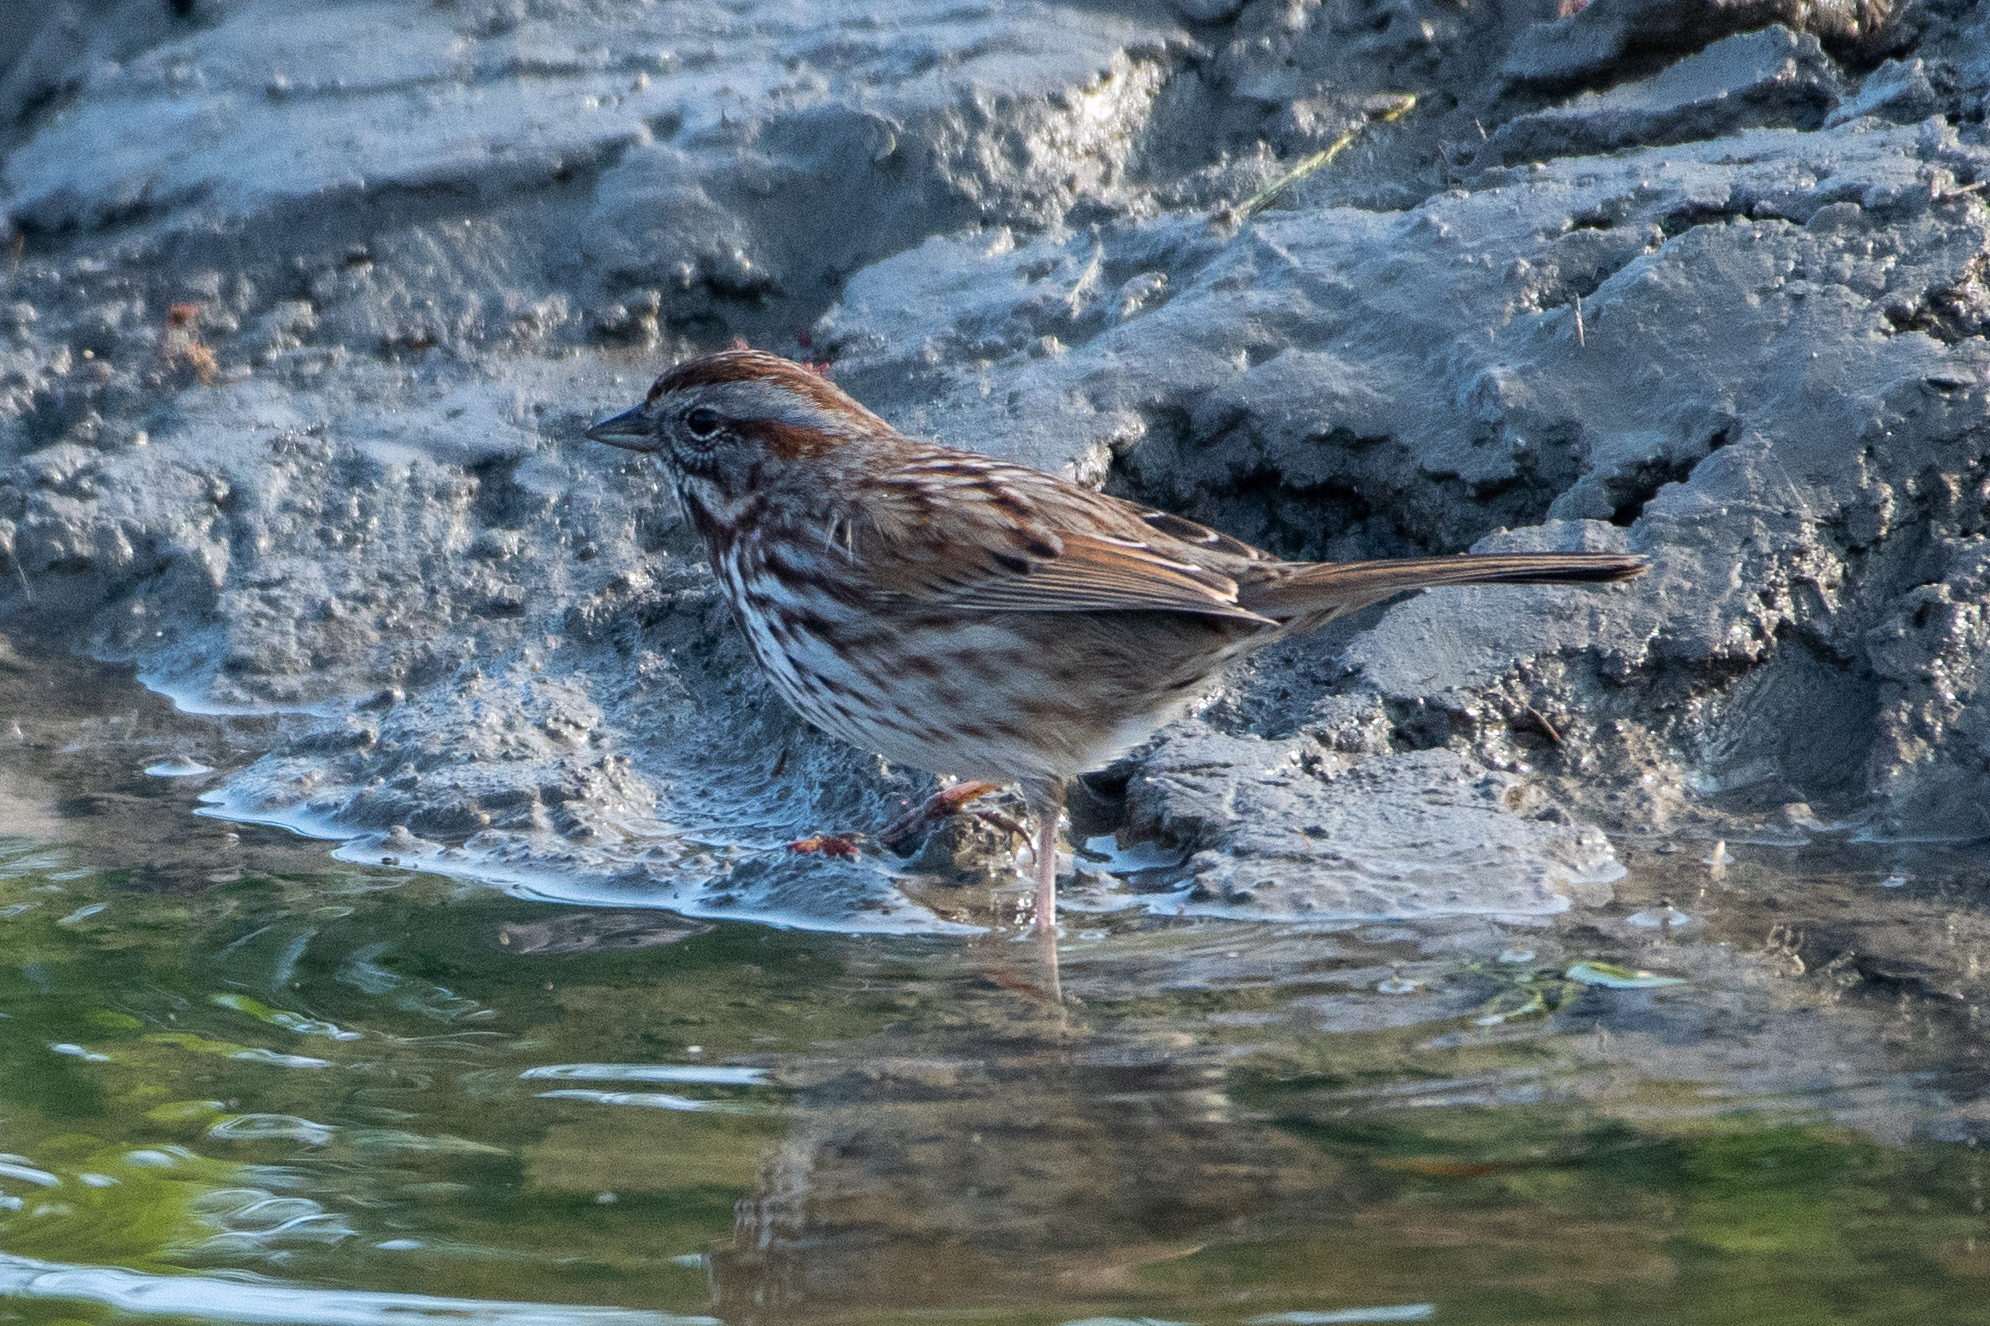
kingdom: Animalia
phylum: Chordata
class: Aves
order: Passeriformes
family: Passerellidae
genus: Melospiza
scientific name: Melospiza melodia
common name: Song sparrow
